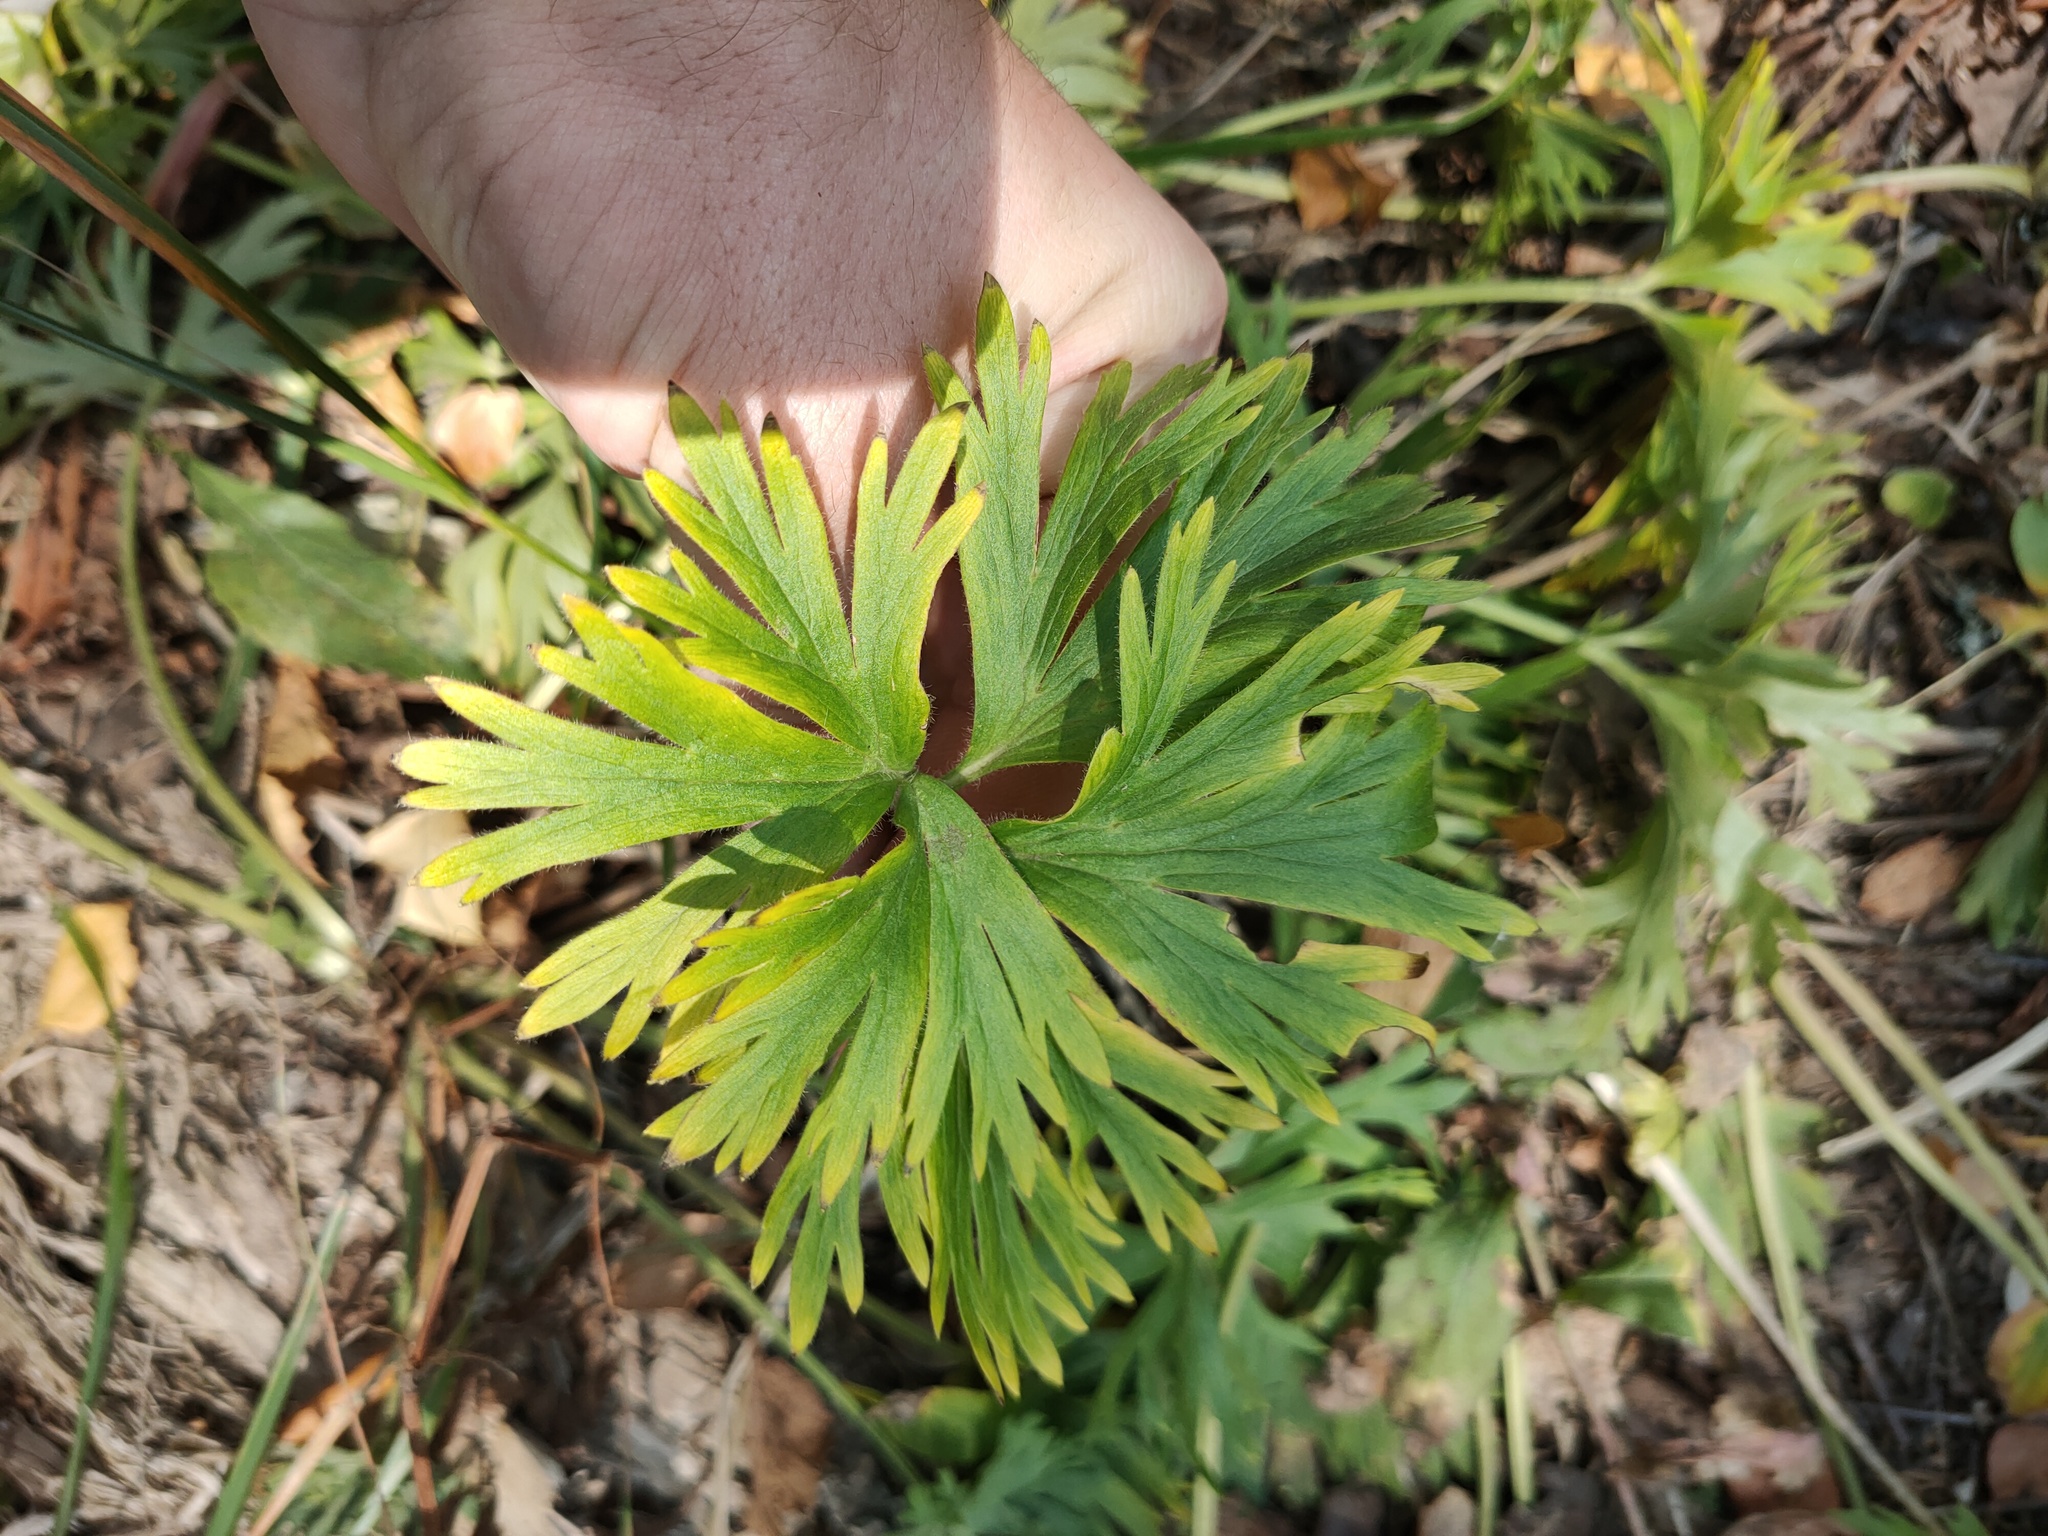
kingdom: Plantae
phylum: Tracheophyta
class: Magnoliopsida
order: Ranunculales
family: Ranunculaceae
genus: Anemonastrum
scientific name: Anemonastrum biarmiense
